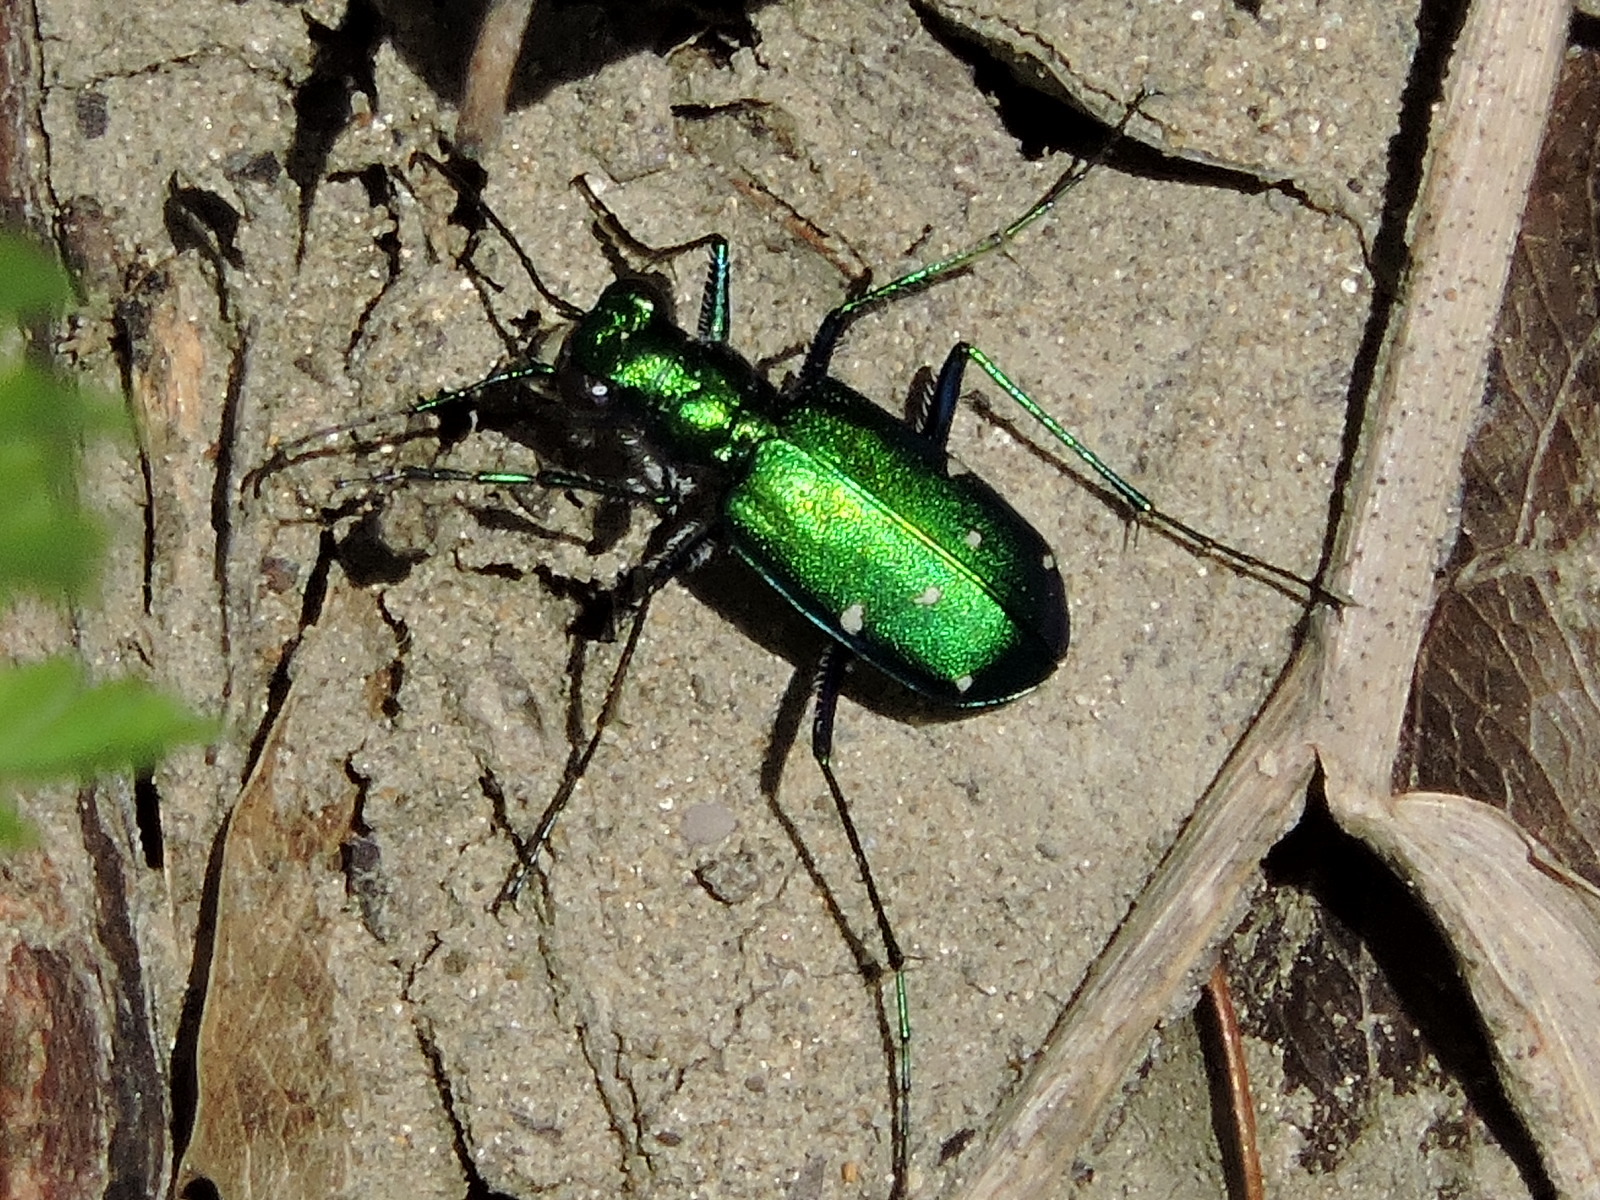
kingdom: Animalia
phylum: Arthropoda
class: Insecta
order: Coleoptera
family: Carabidae
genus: Cicindela
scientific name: Cicindela sexguttata
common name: Six-spotted tiger beetle
